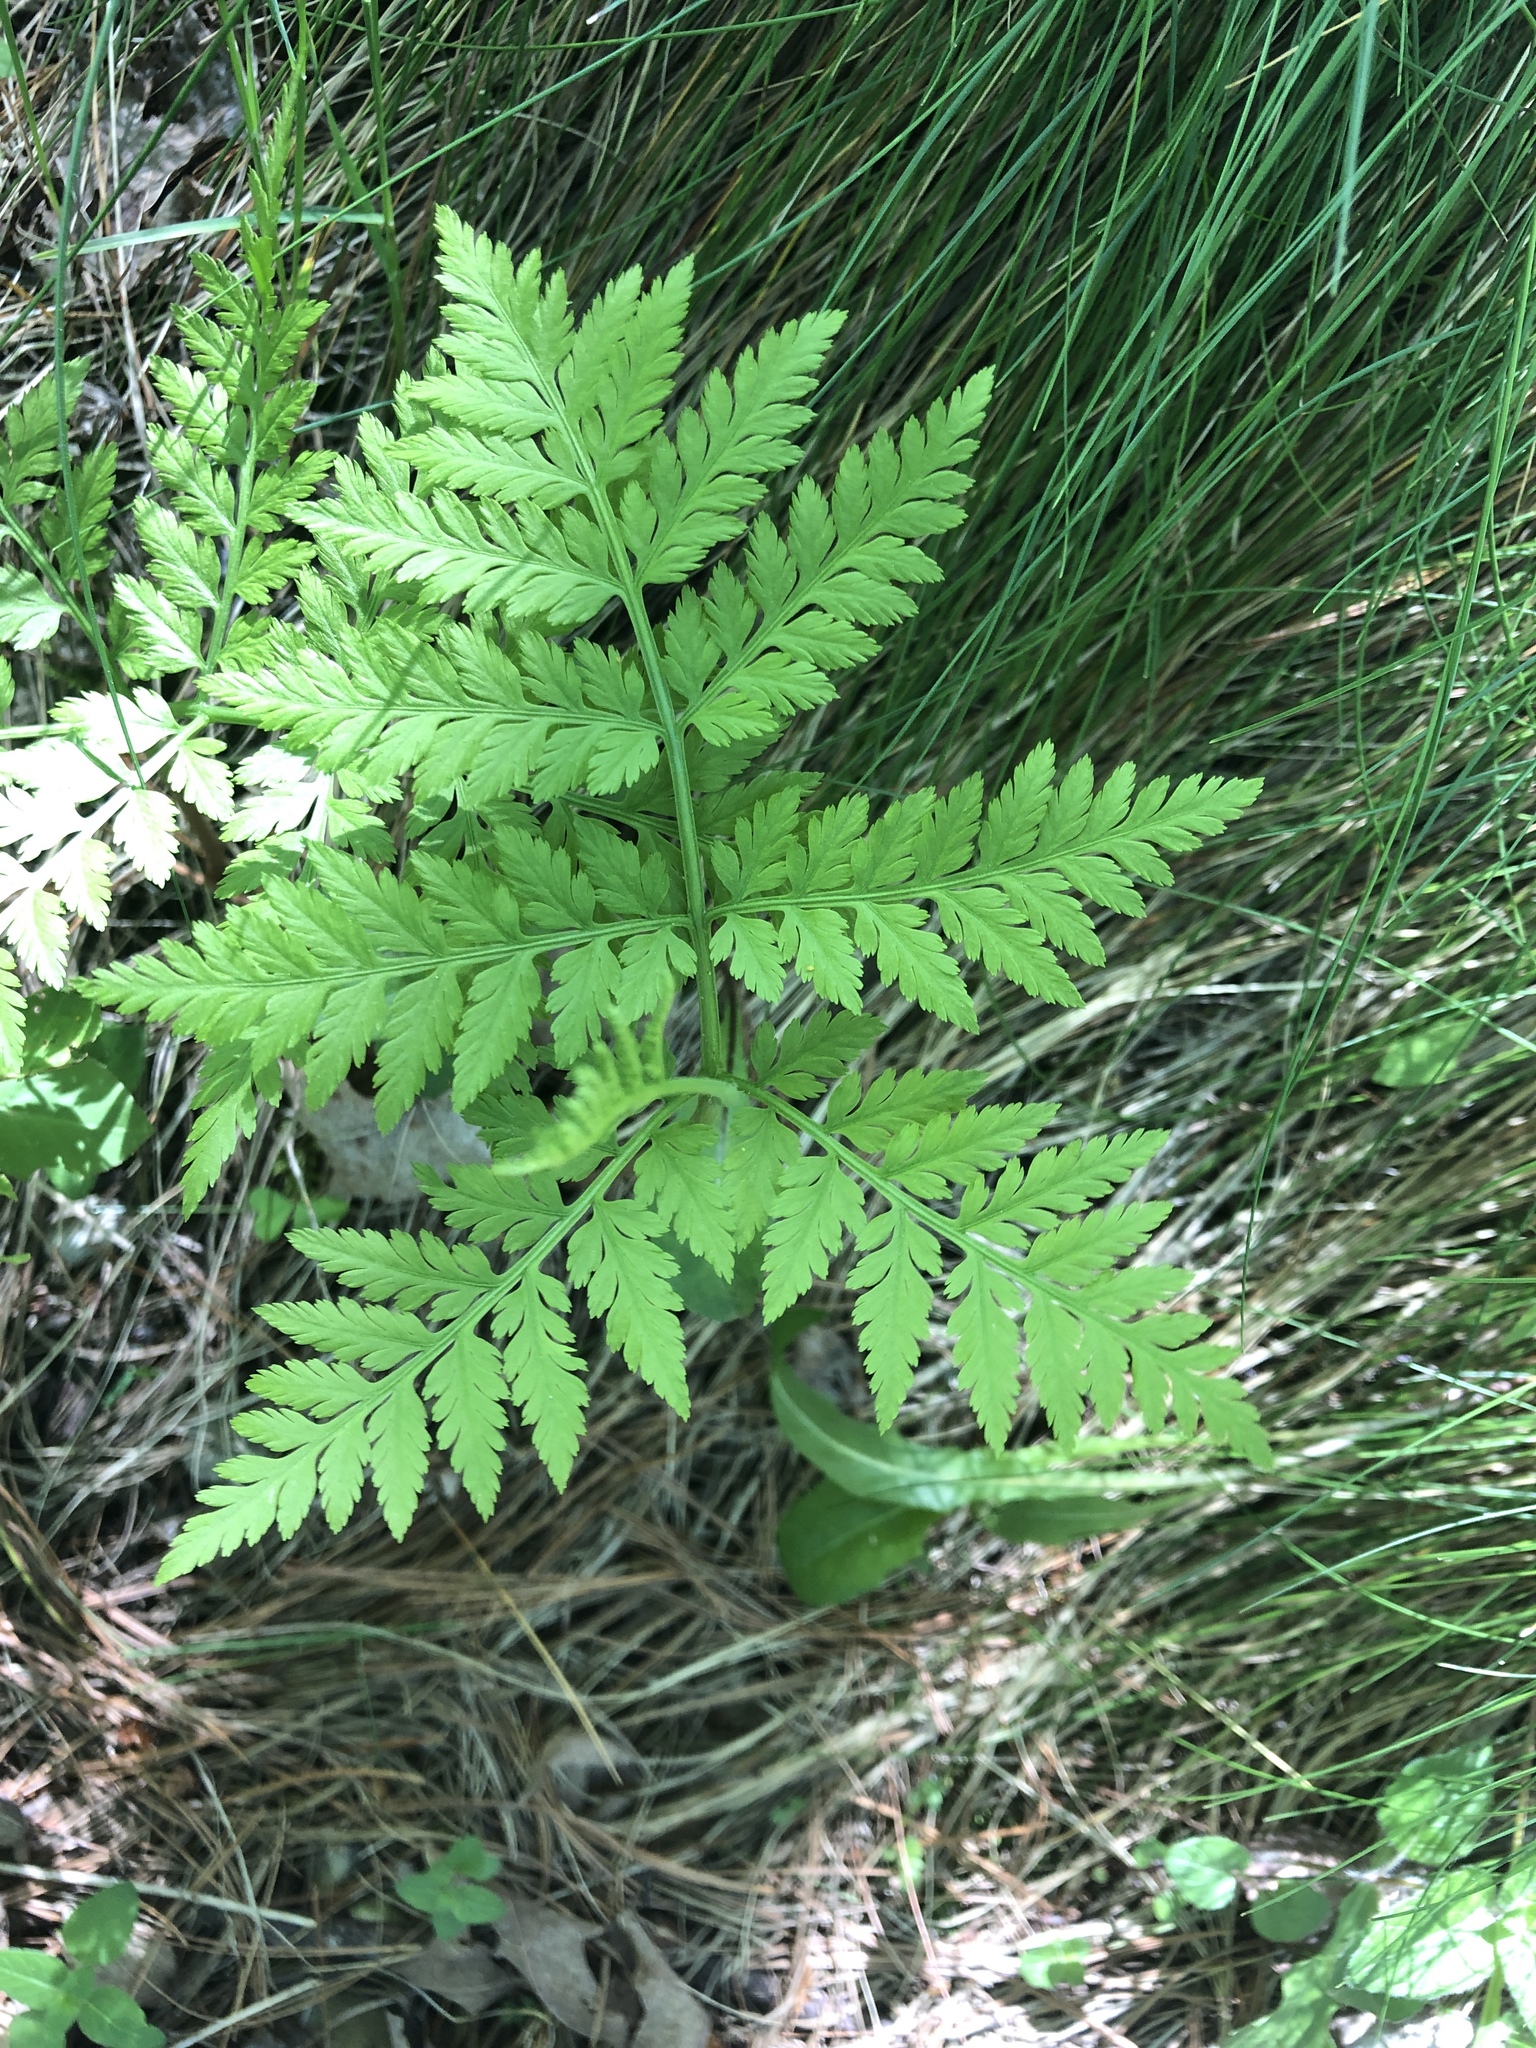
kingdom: Plantae
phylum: Tracheophyta
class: Polypodiopsida
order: Ophioglossales
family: Ophioglossaceae
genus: Botrypus
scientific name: Botrypus virginianus
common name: Common grapefern
